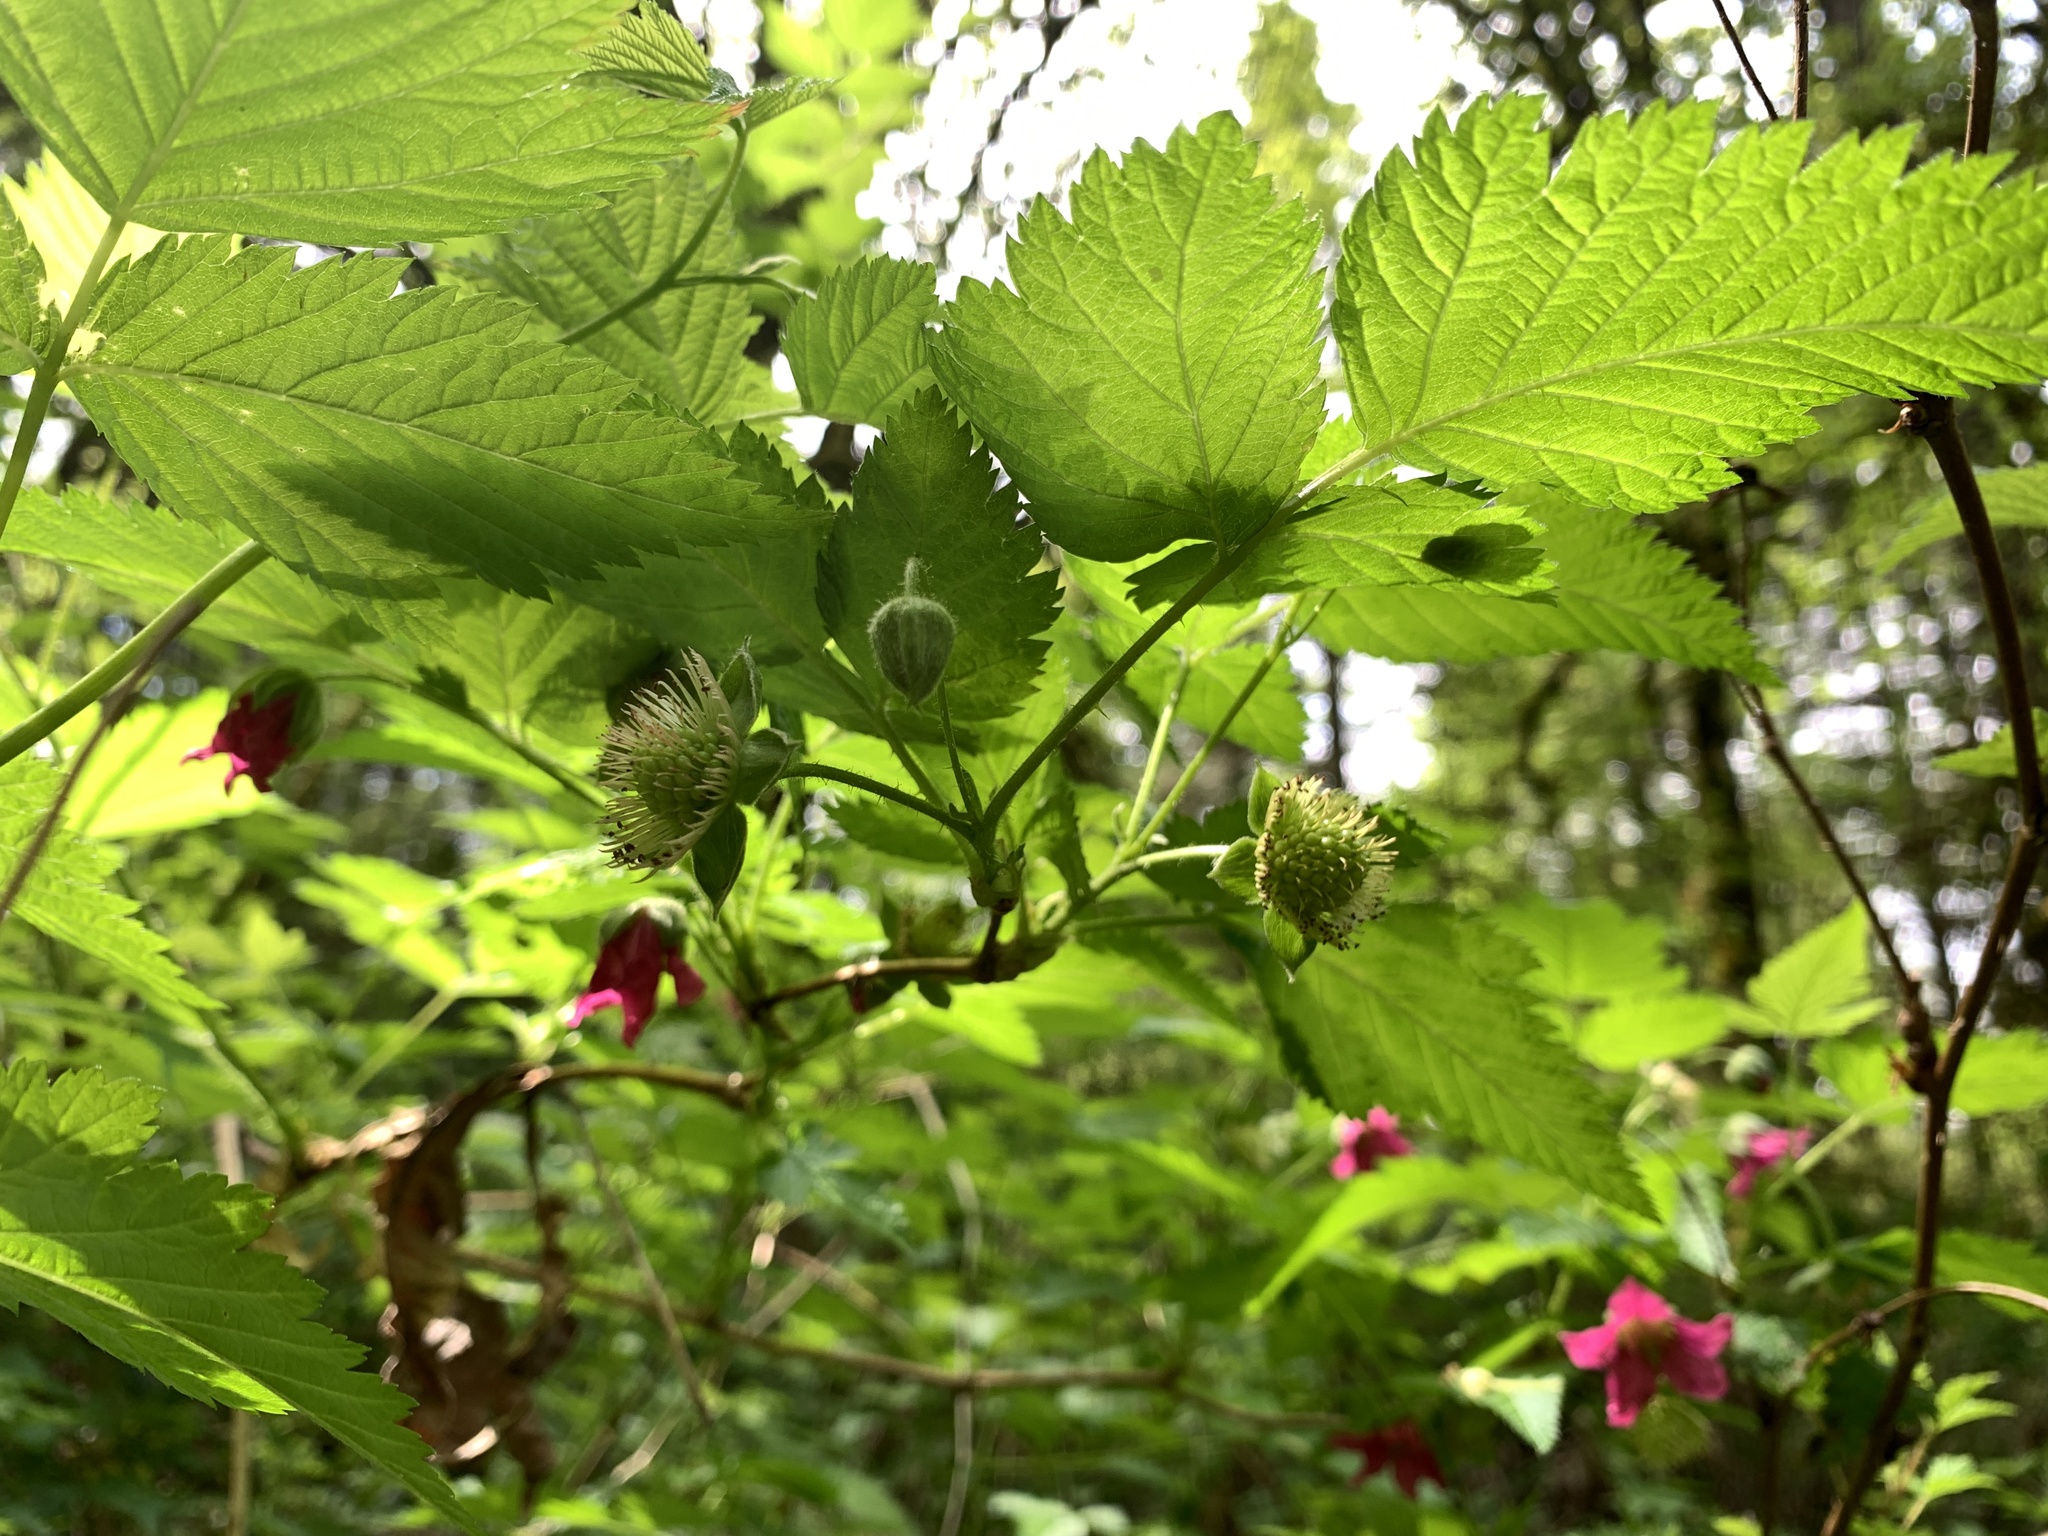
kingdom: Plantae
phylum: Tracheophyta
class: Magnoliopsida
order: Rosales
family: Rosaceae
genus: Rubus
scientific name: Rubus spectabilis
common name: Salmonberry
